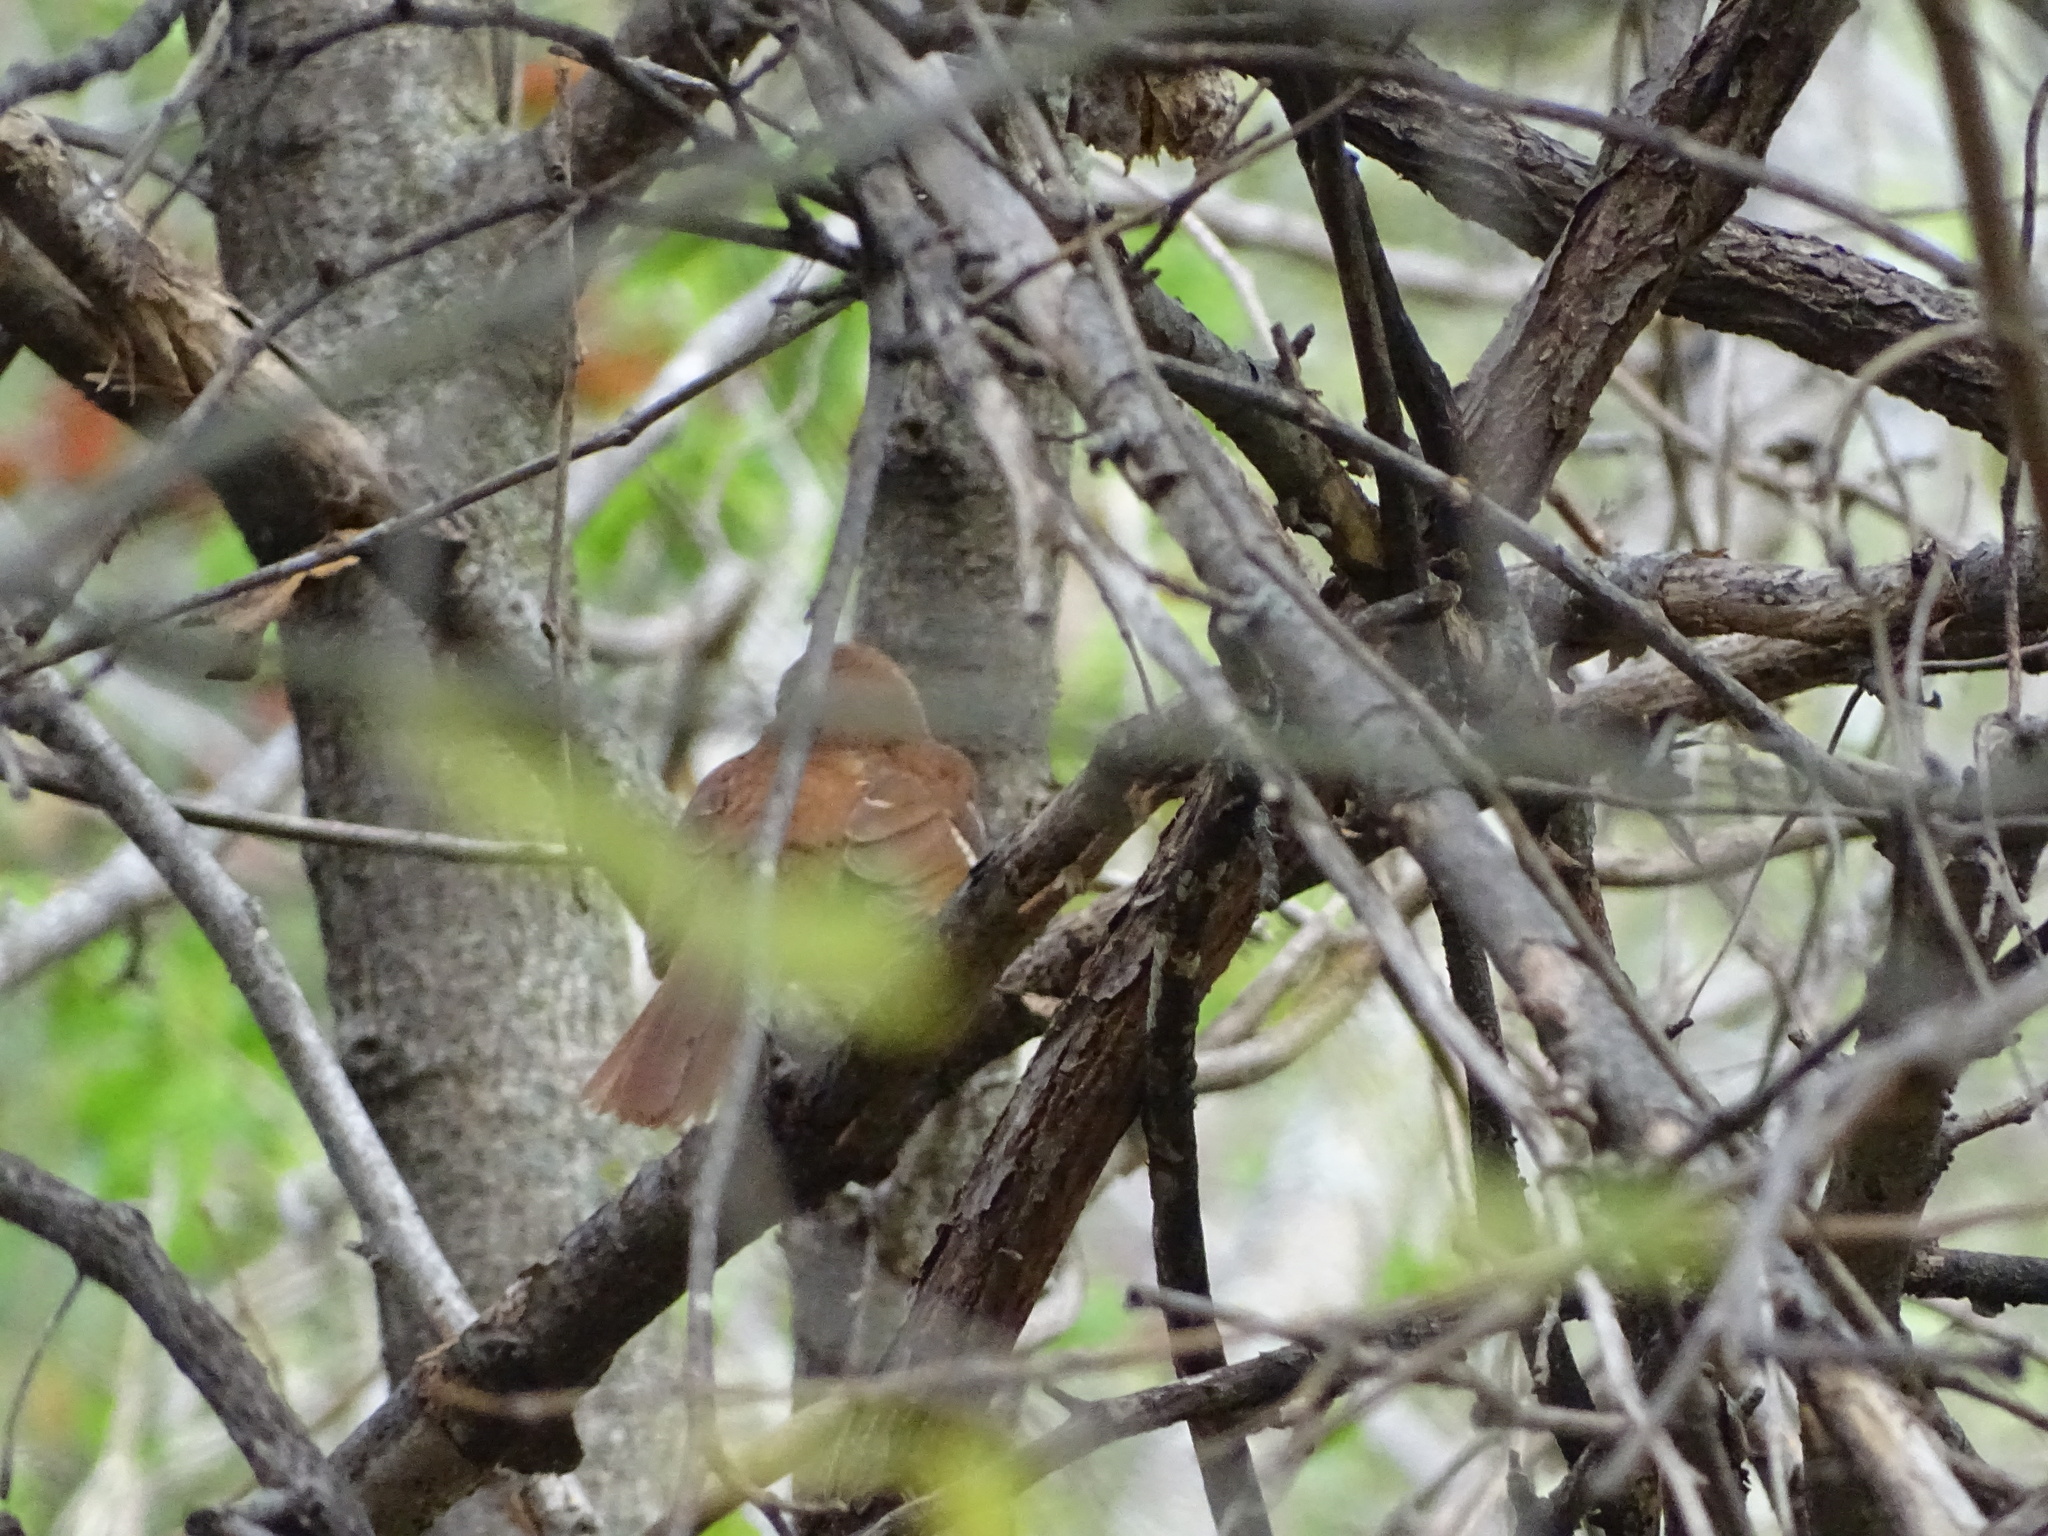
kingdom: Animalia
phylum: Chordata
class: Aves
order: Passeriformes
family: Mimidae
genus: Toxostoma
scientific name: Toxostoma rufum
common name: Brown thrasher
